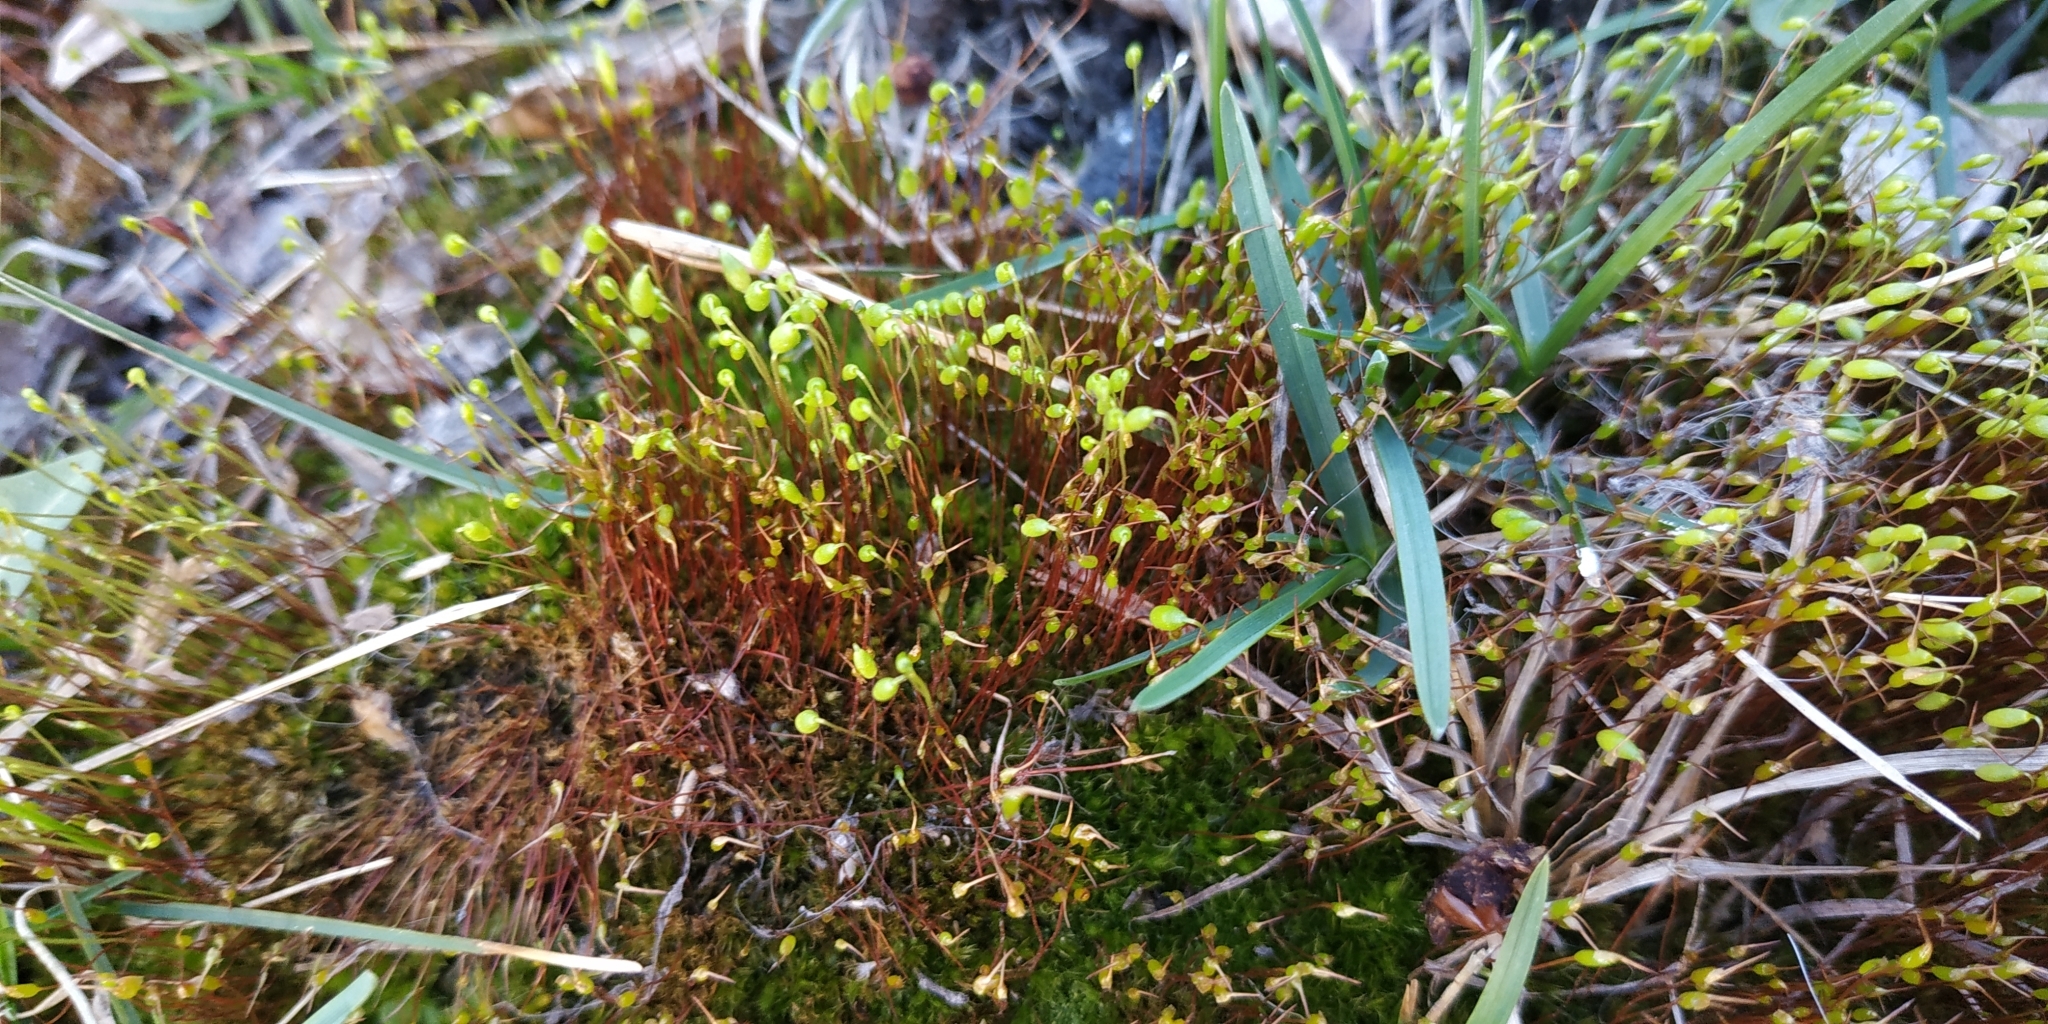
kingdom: Plantae
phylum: Bryophyta
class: Bryopsida
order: Dicranales
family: Ditrichaceae
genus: Ceratodon
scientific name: Ceratodon purpureus
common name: Redshank
